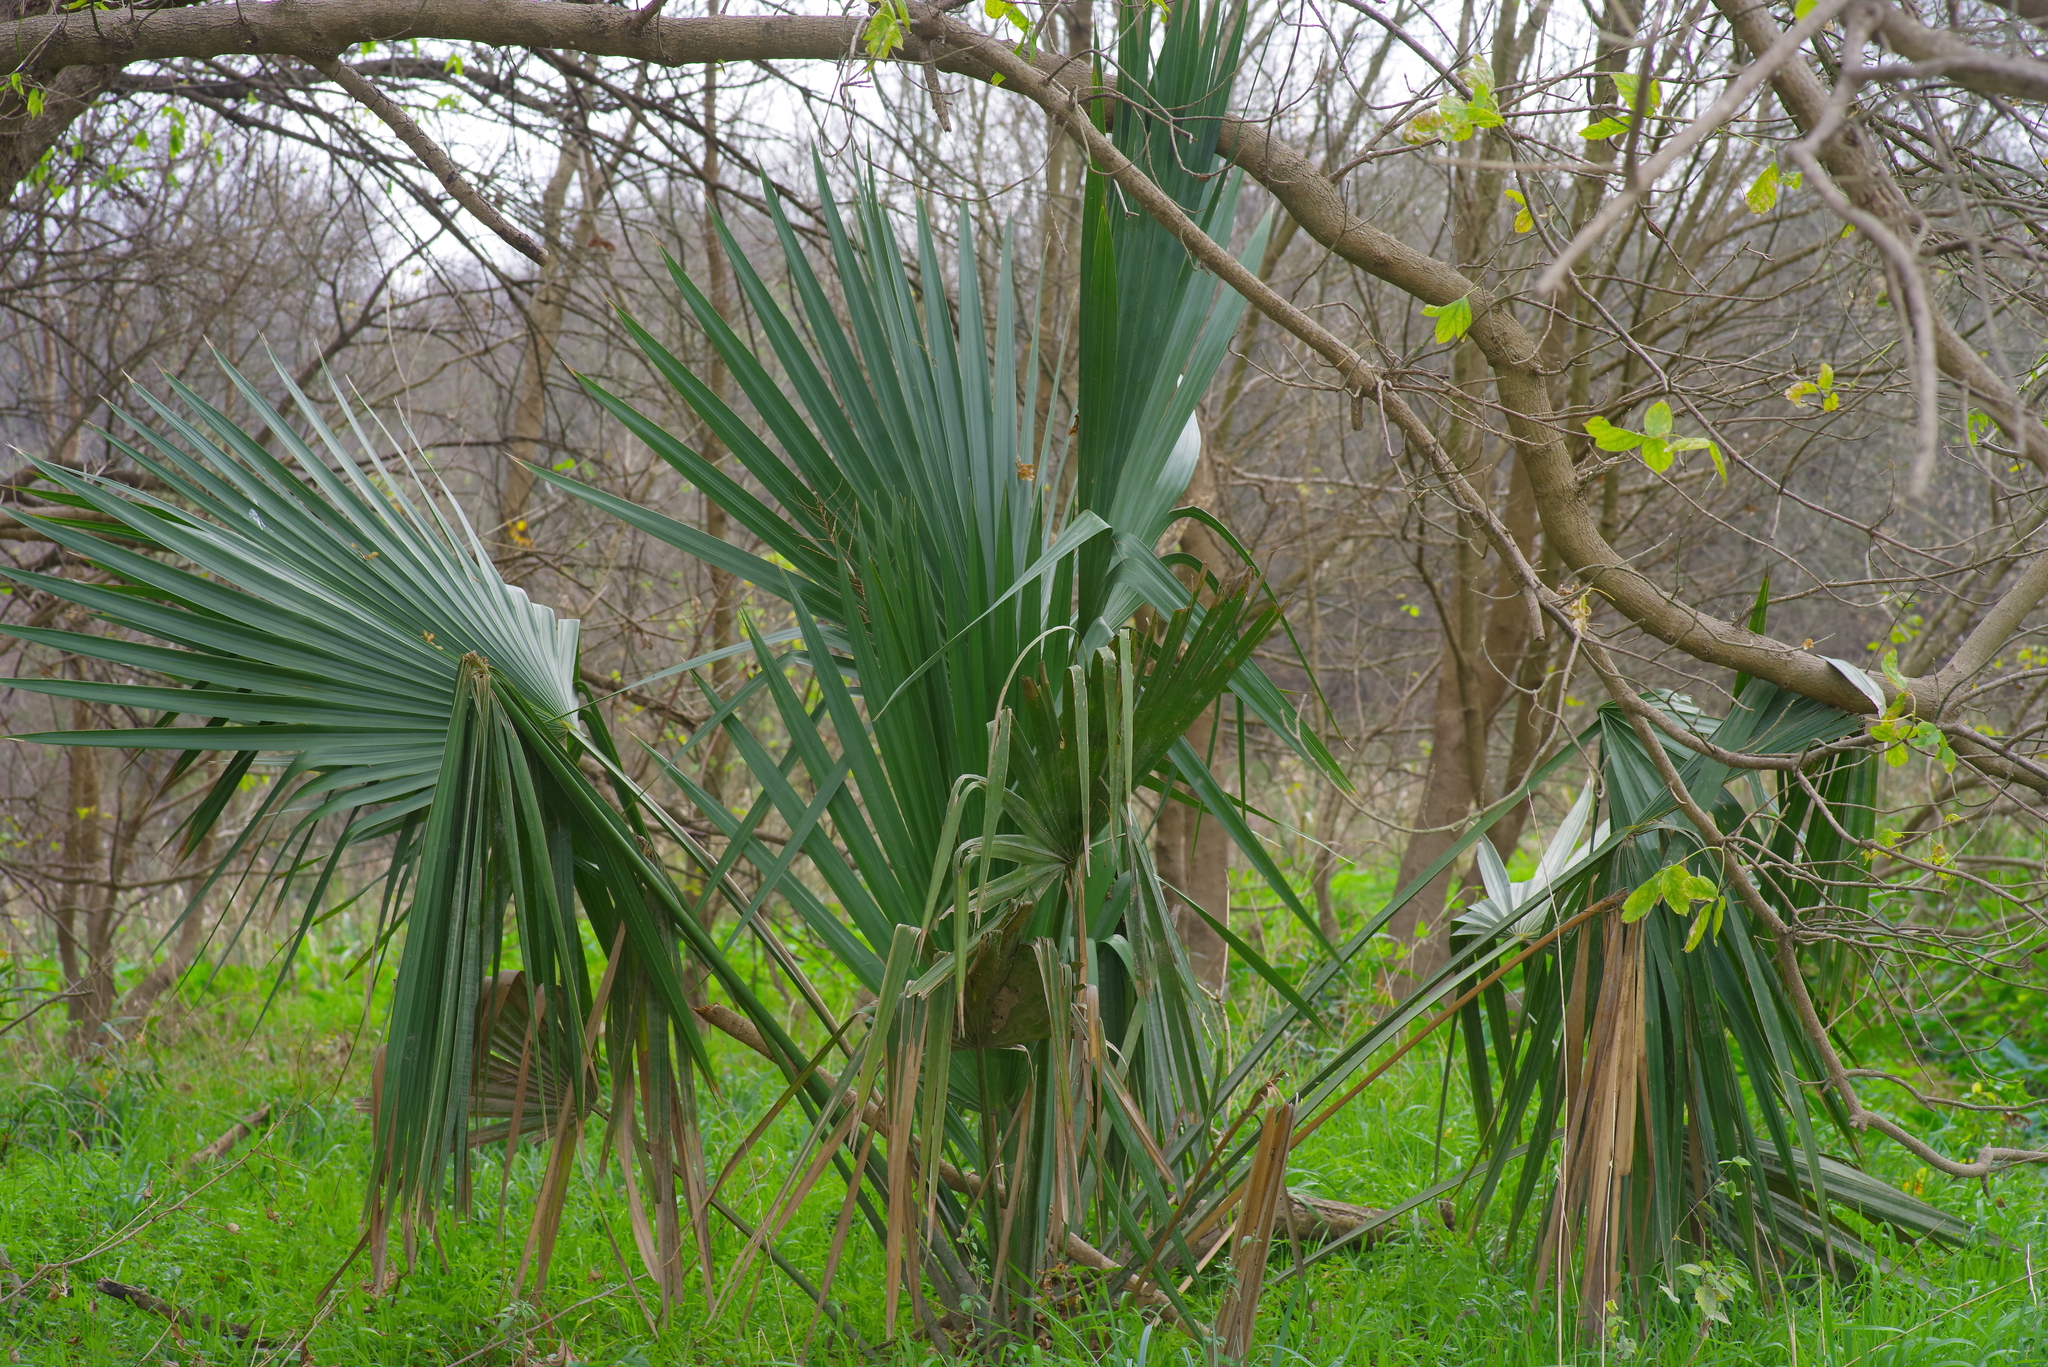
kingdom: Plantae
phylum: Tracheophyta
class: Liliopsida
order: Arecales
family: Arecaceae
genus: Sabal
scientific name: Sabal minor
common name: Dwarf palmetto
